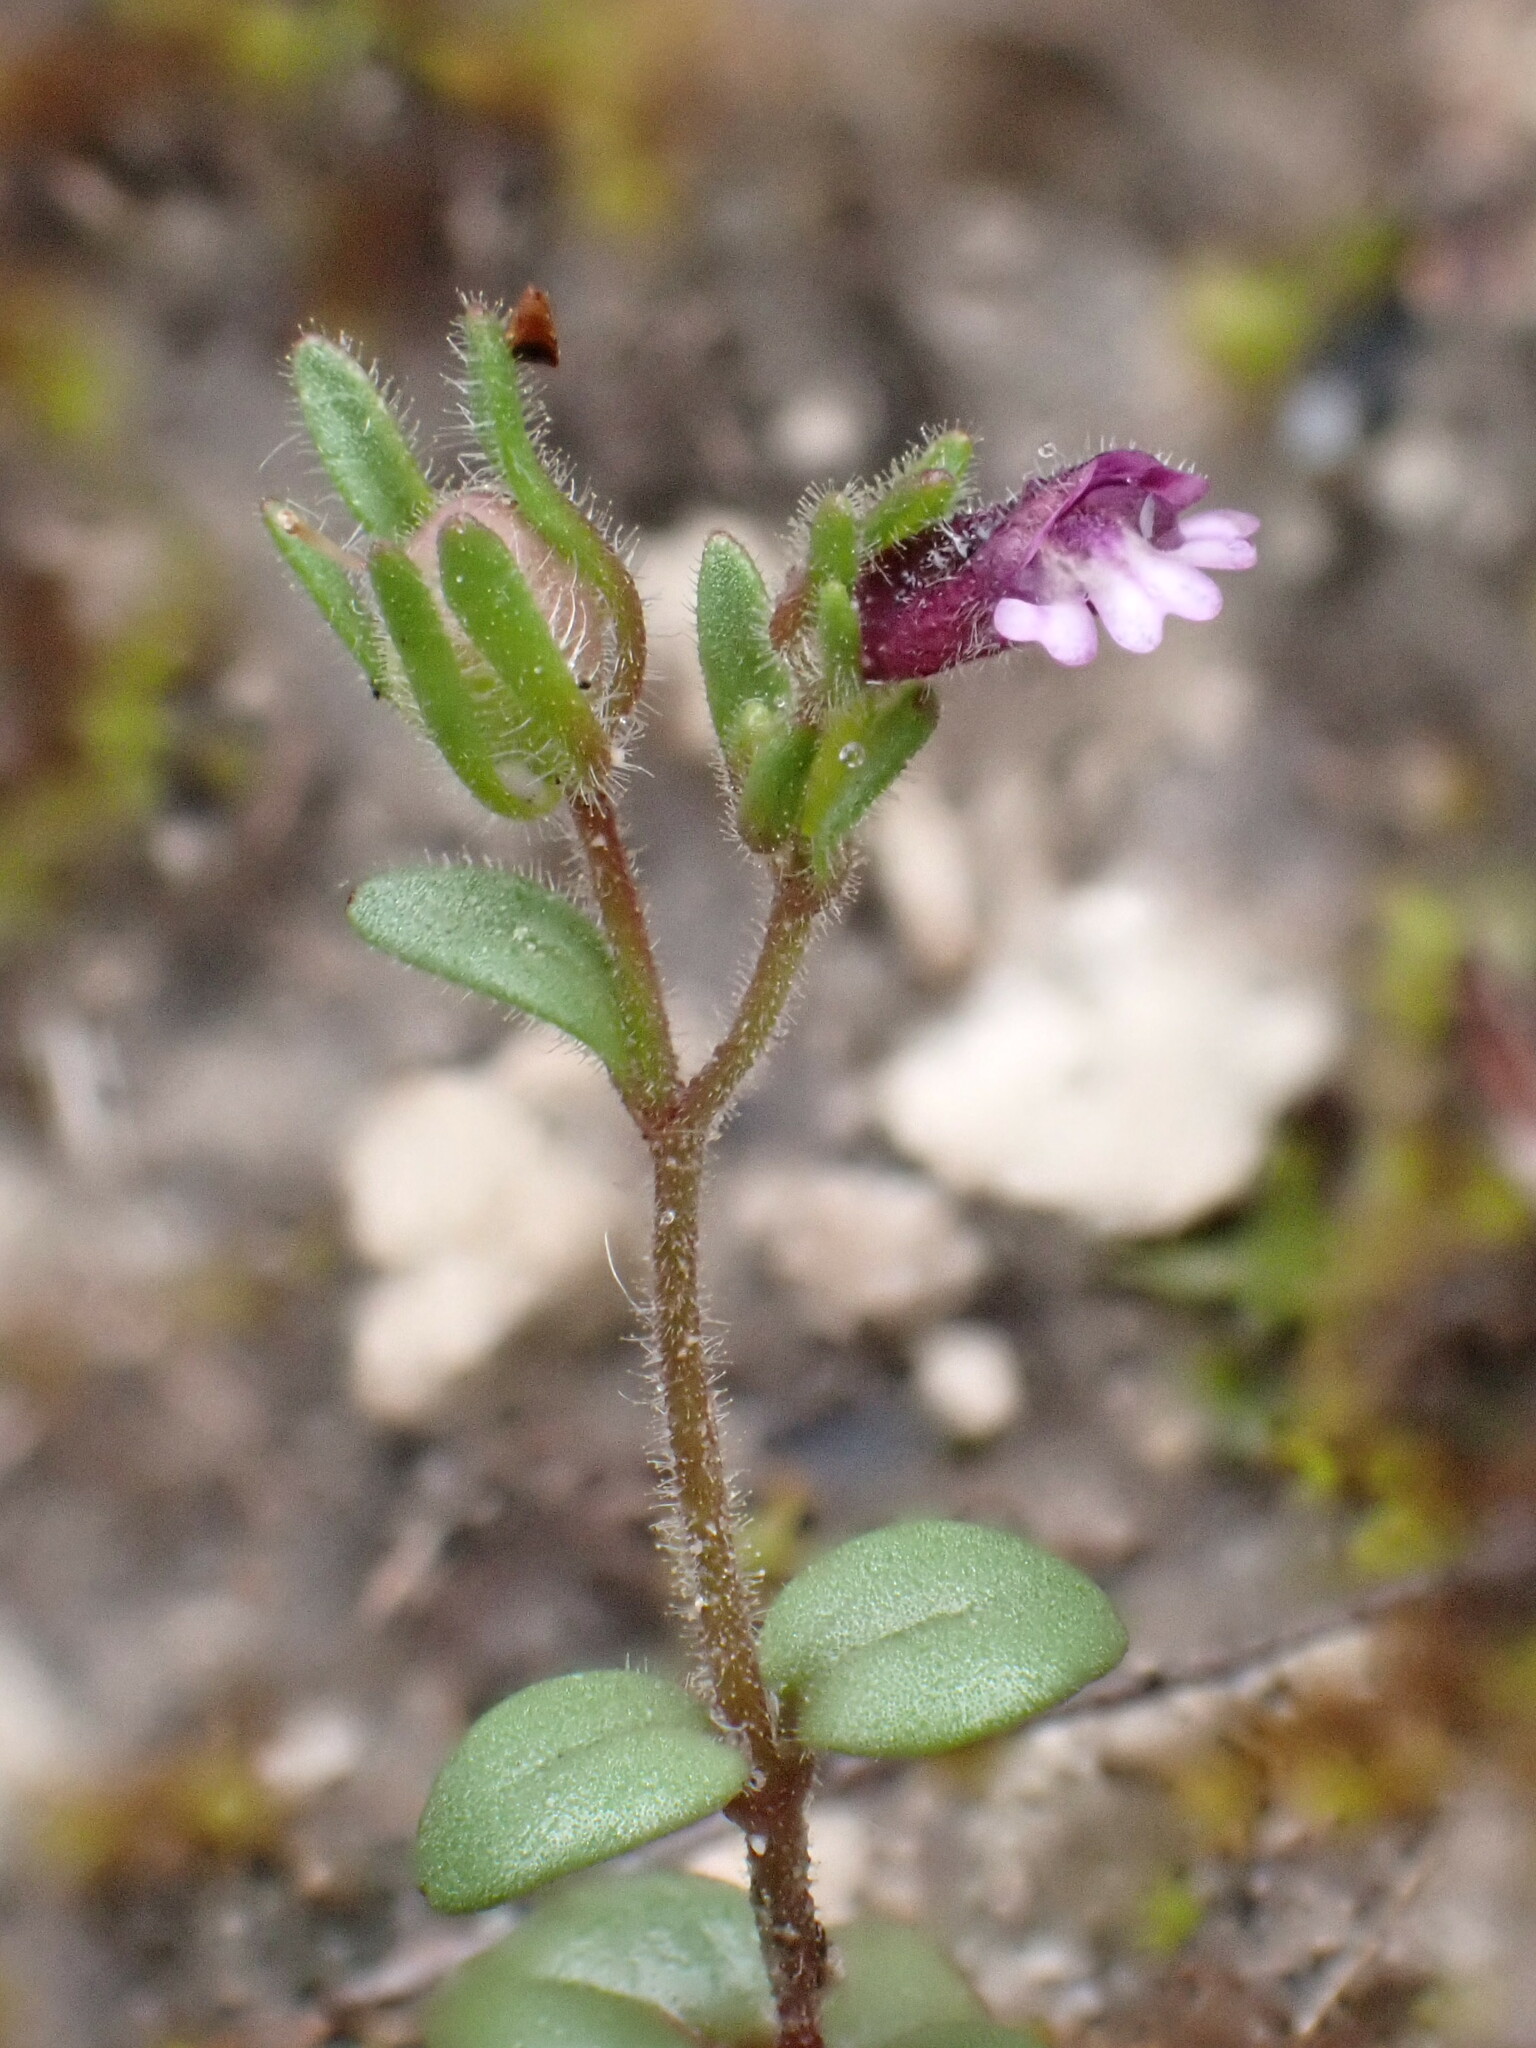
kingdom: Plantae
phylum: Tracheophyta
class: Magnoliopsida
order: Lamiales
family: Plantaginaceae
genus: Chaenorhinum
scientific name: Chaenorhinum rubrifolium
